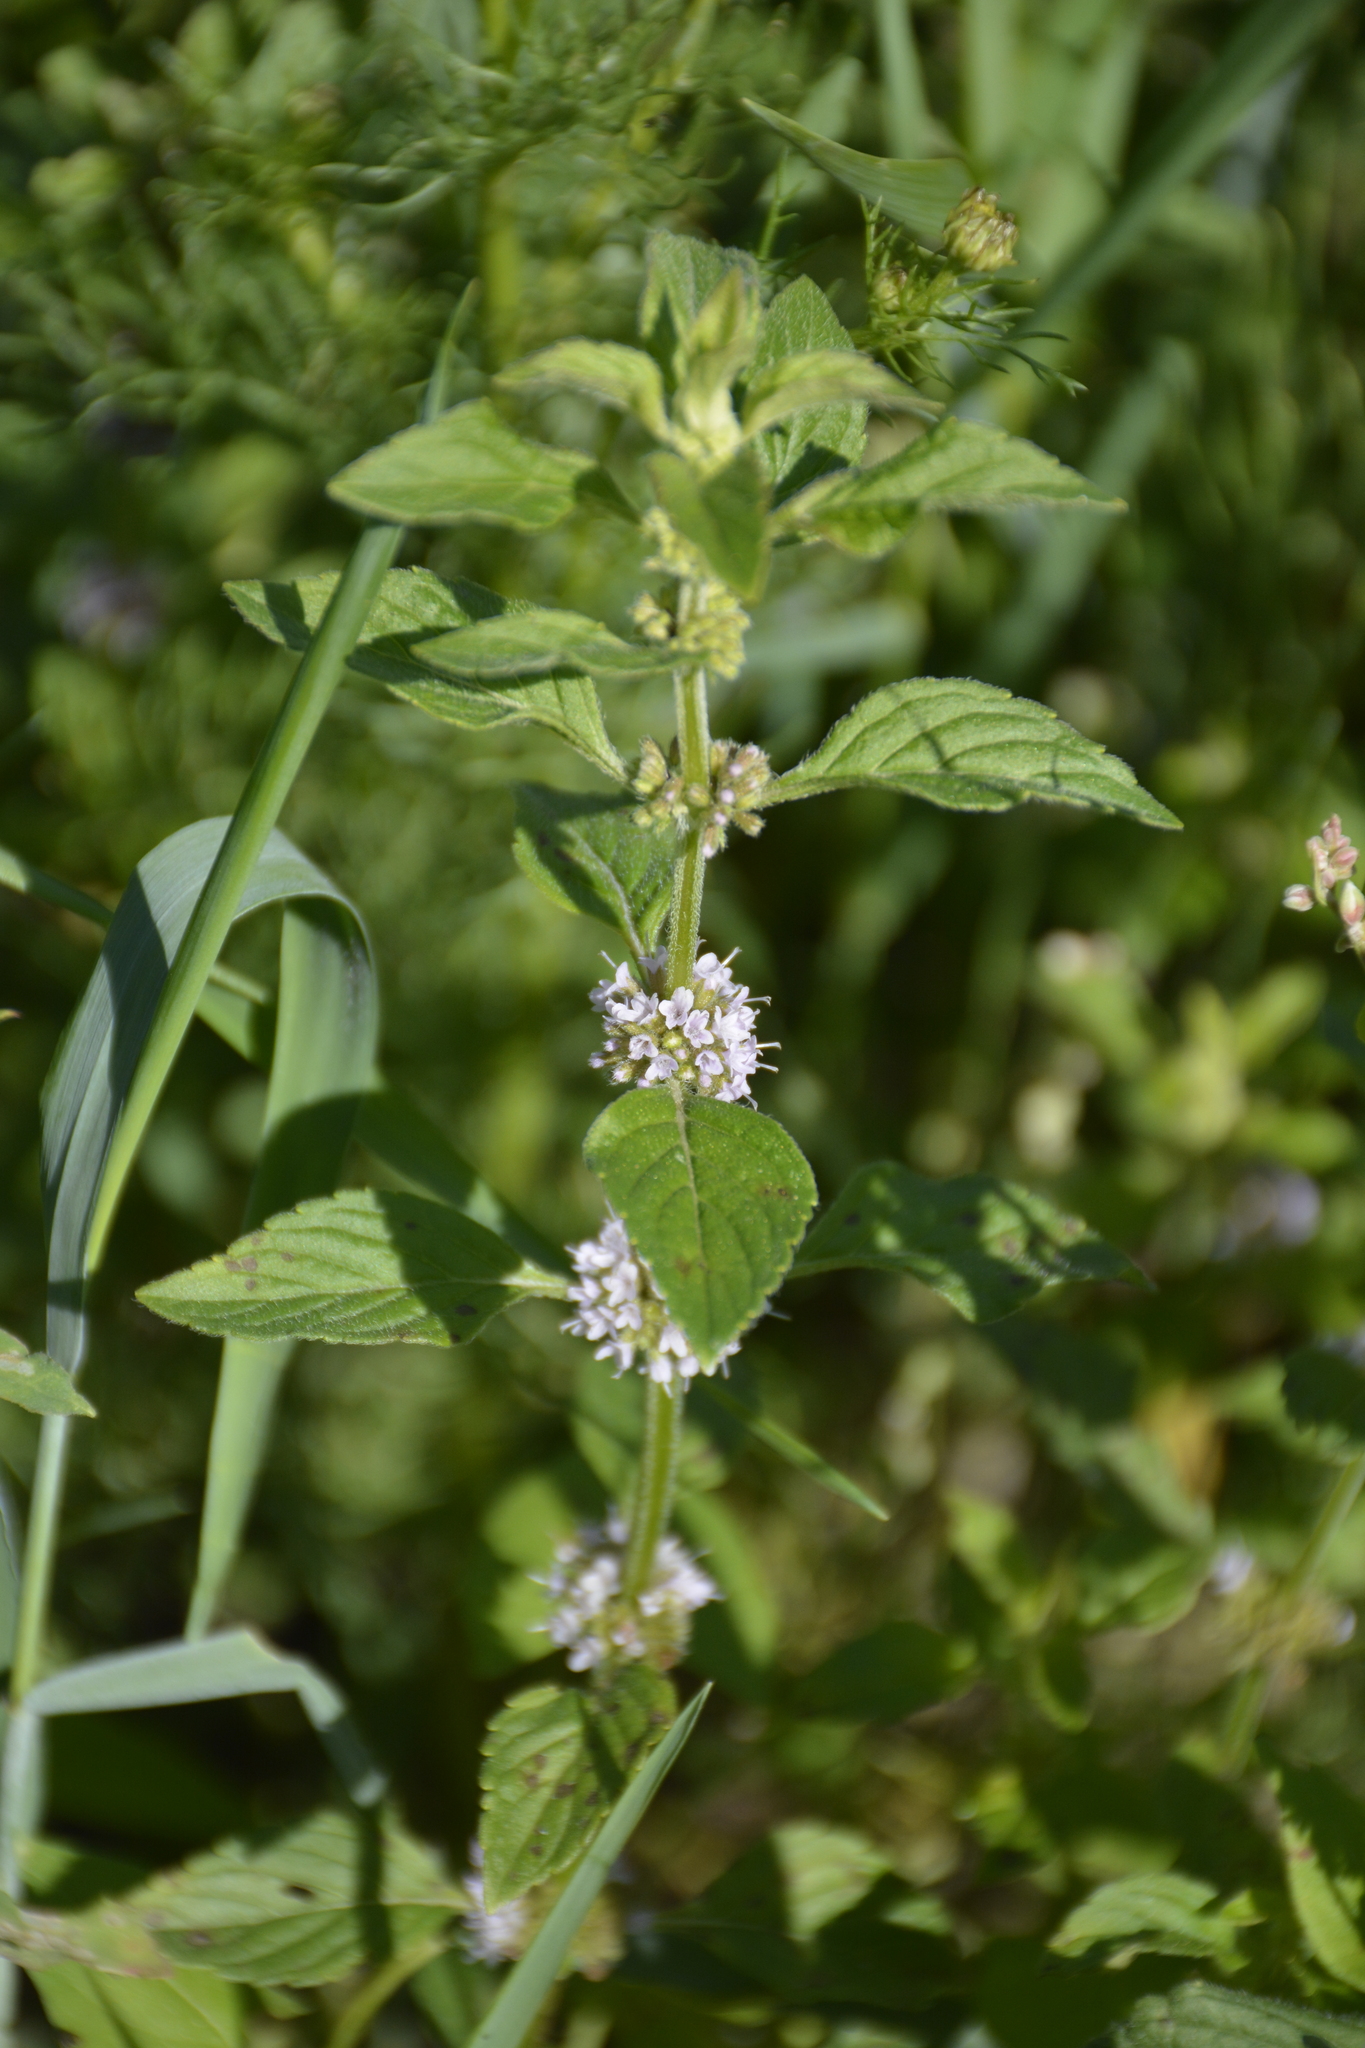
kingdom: Plantae
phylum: Tracheophyta
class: Magnoliopsida
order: Lamiales
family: Lamiaceae
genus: Mentha
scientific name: Mentha arvensis
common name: Corn mint
